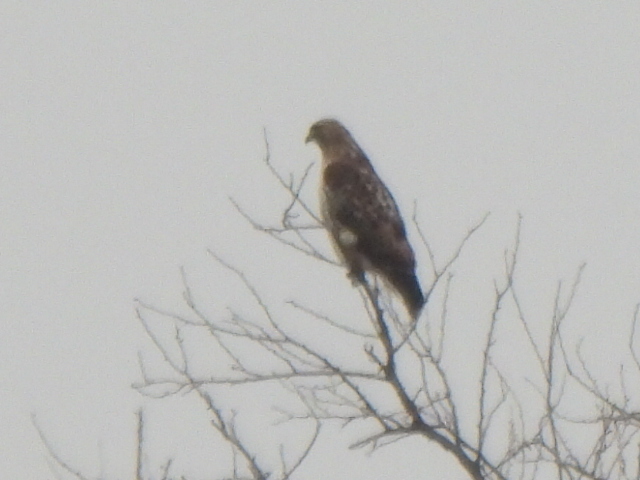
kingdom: Animalia
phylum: Chordata
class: Aves
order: Accipitriformes
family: Accipitridae
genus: Buteo
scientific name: Buteo jamaicensis
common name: Red-tailed hawk
